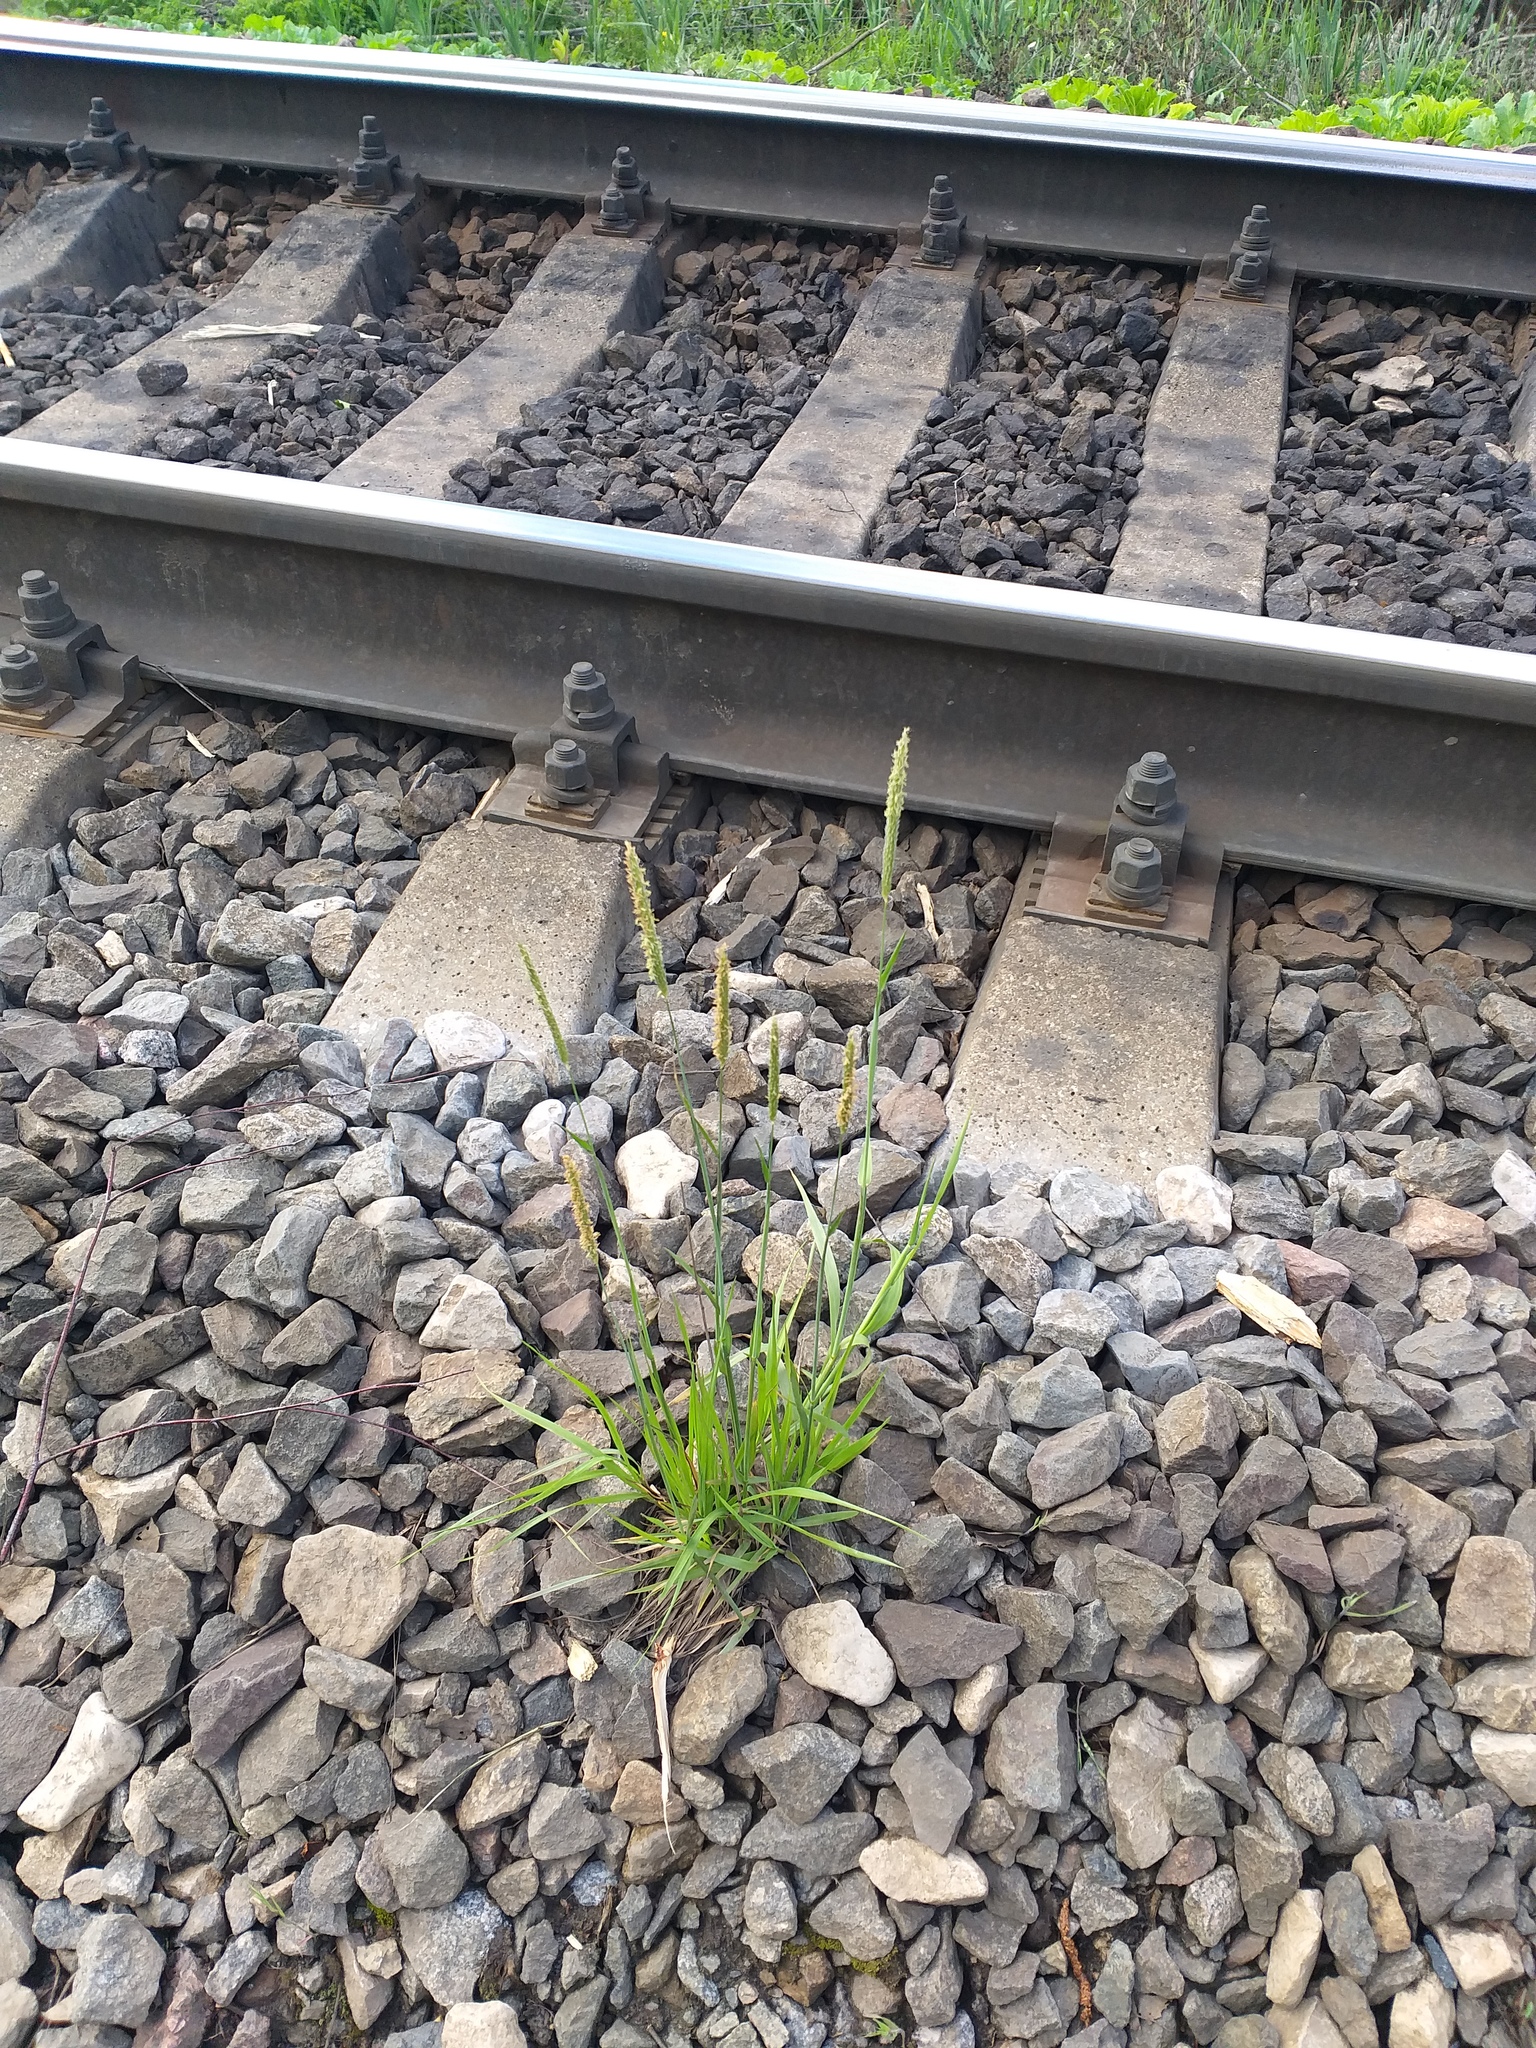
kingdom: Plantae
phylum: Tracheophyta
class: Liliopsida
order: Poales
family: Poaceae
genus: Alopecurus
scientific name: Alopecurus pratensis
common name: Meadow foxtail
